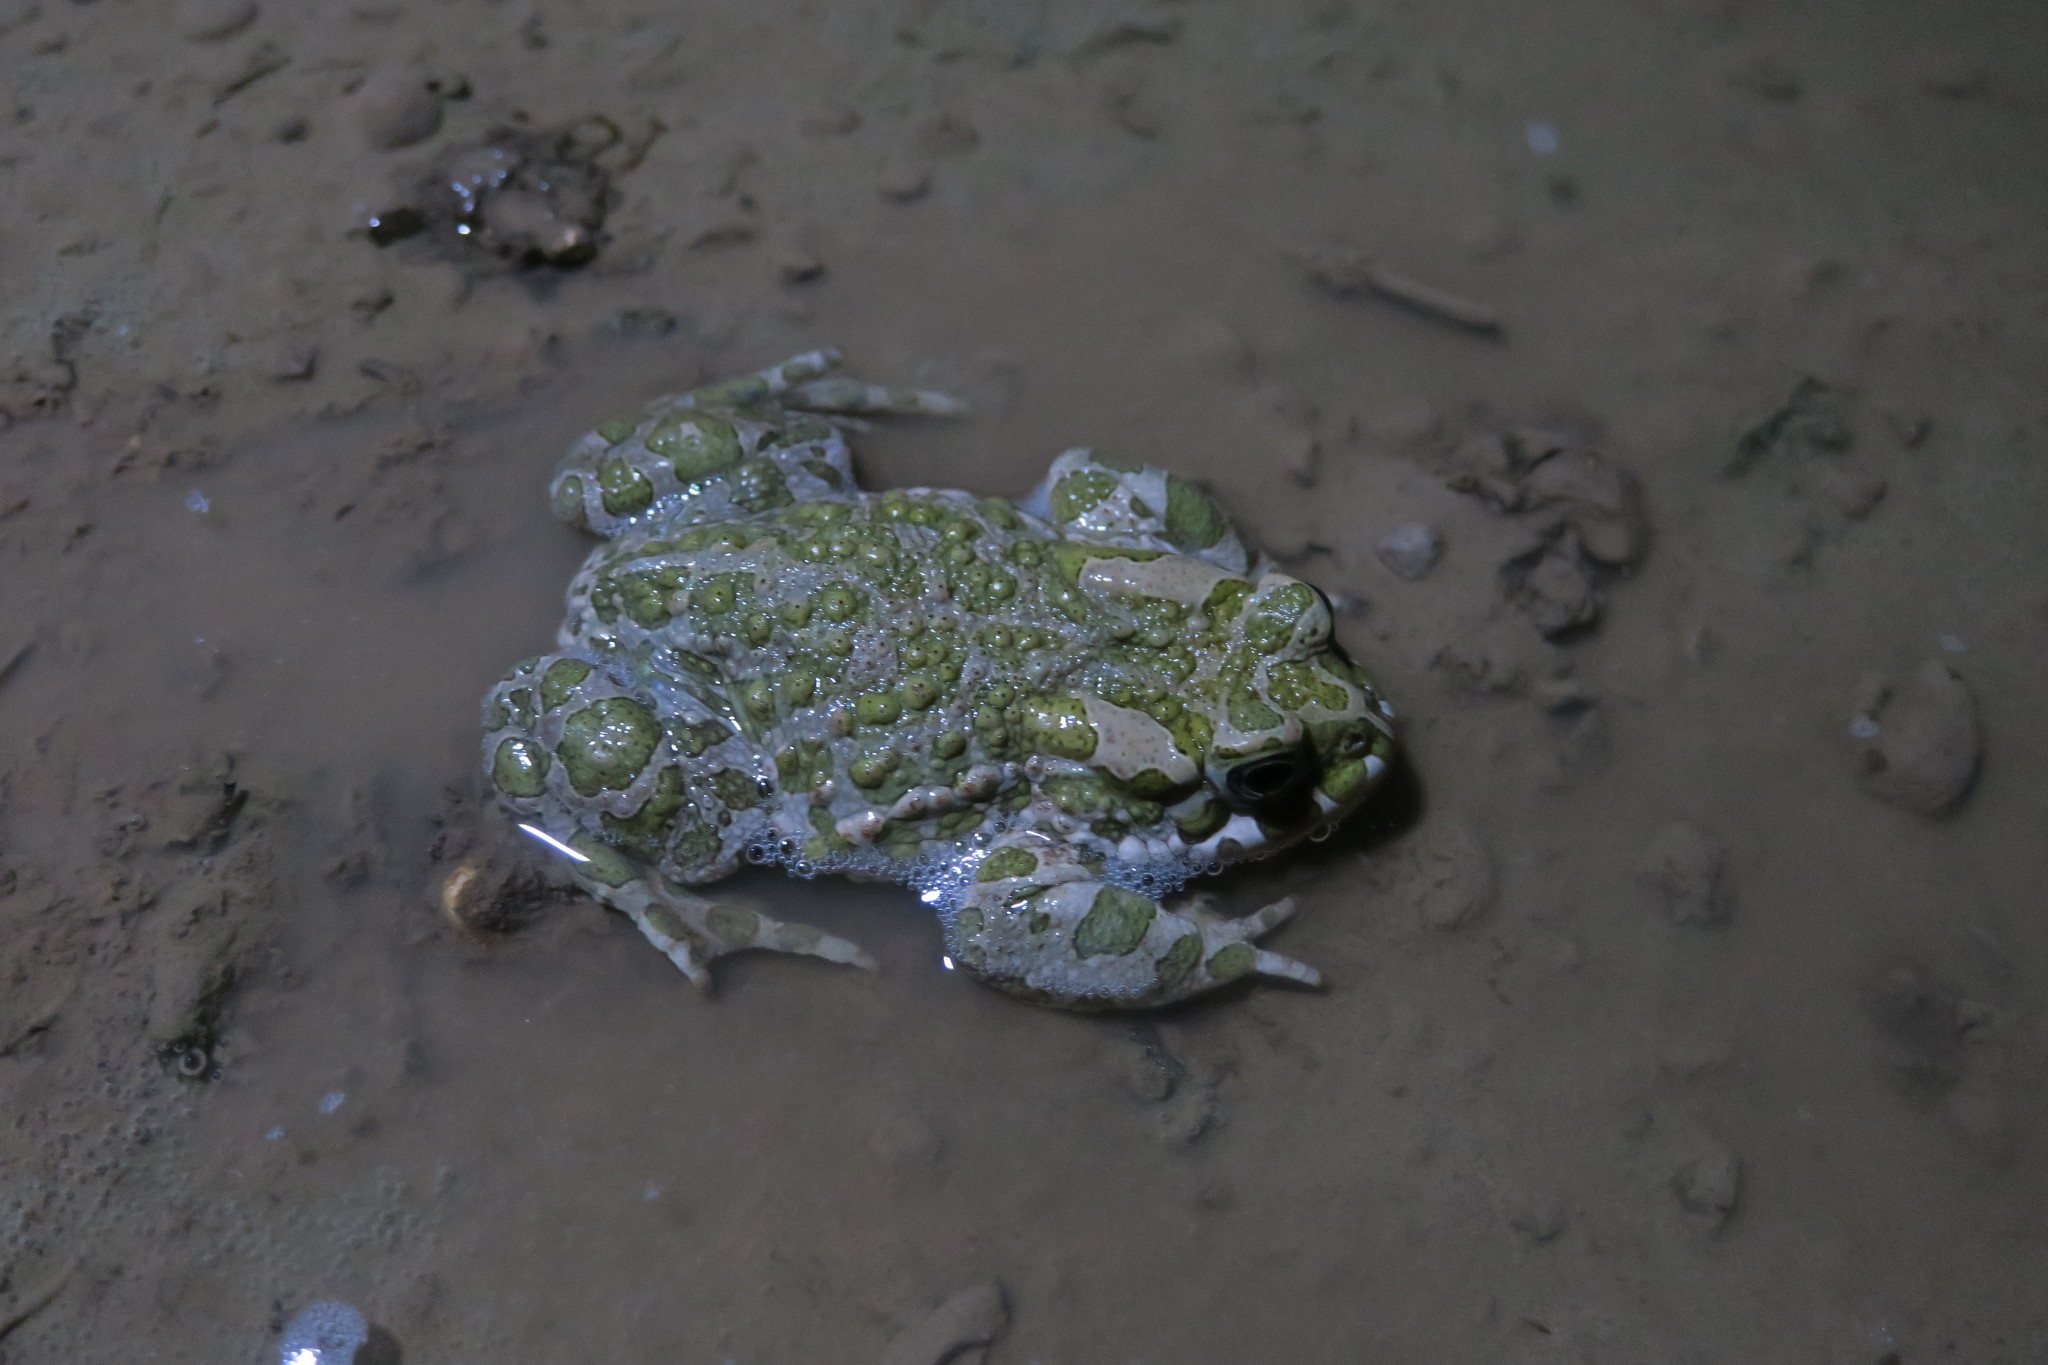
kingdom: Animalia
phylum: Chordata
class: Amphibia
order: Anura
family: Bufonidae
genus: Bufotes
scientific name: Bufotes viridis
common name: European green toad
